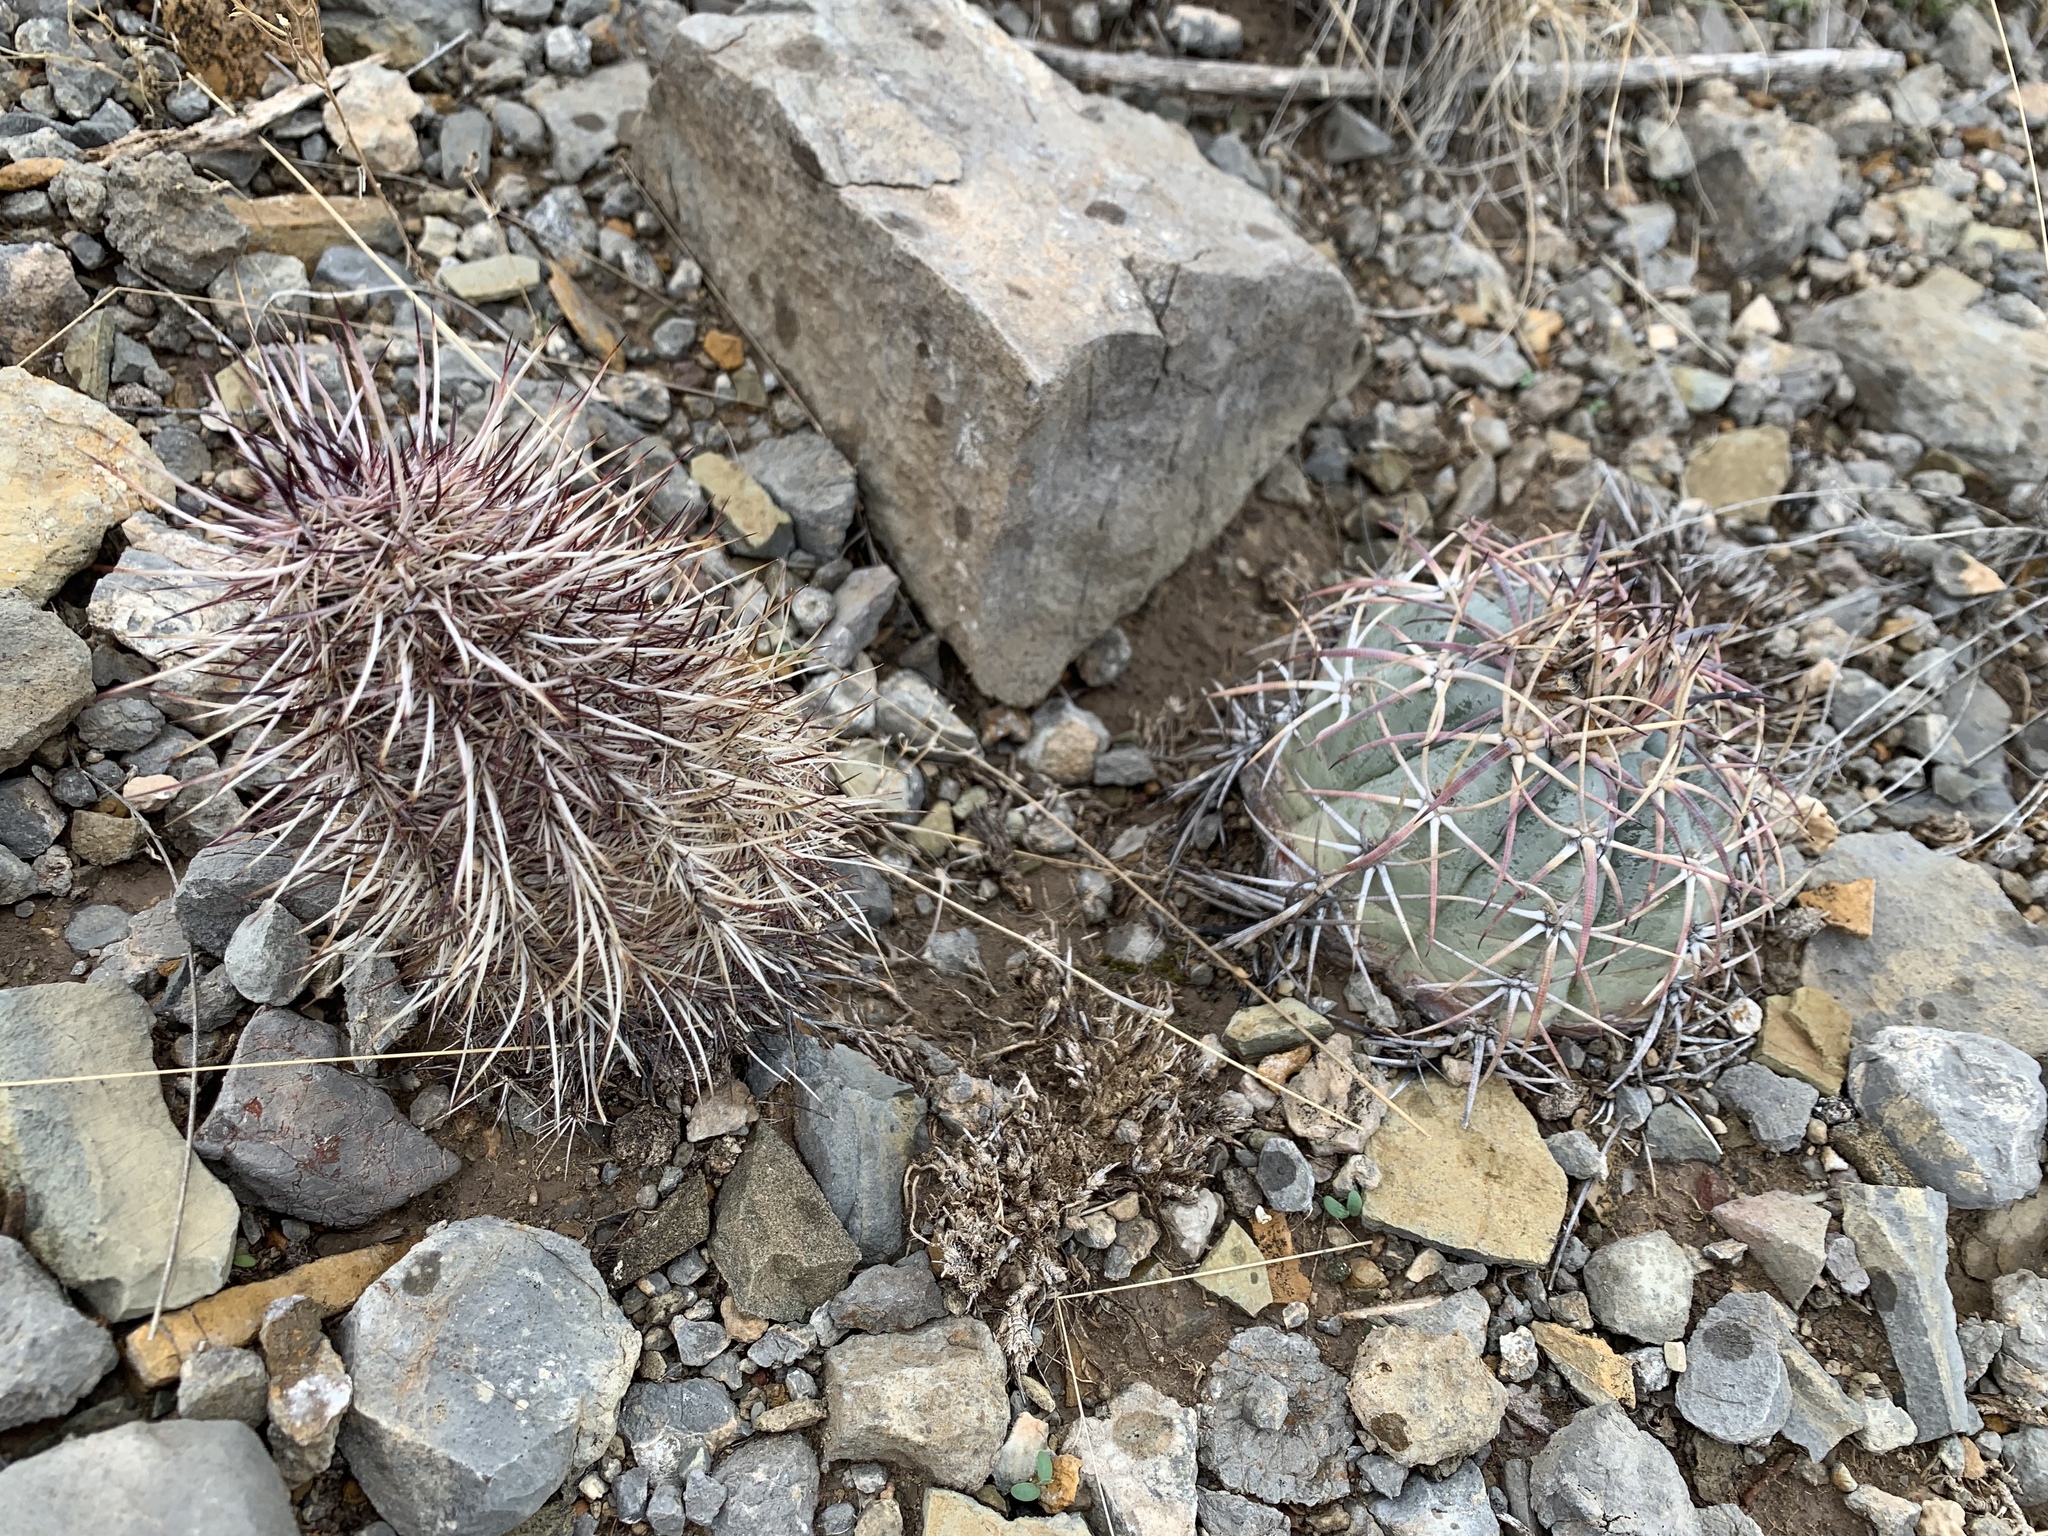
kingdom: Plantae
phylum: Tracheophyta
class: Magnoliopsida
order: Caryophyllales
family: Cactaceae
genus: Echinocactus
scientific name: Echinocactus horizonthalonius
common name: Devilshead
